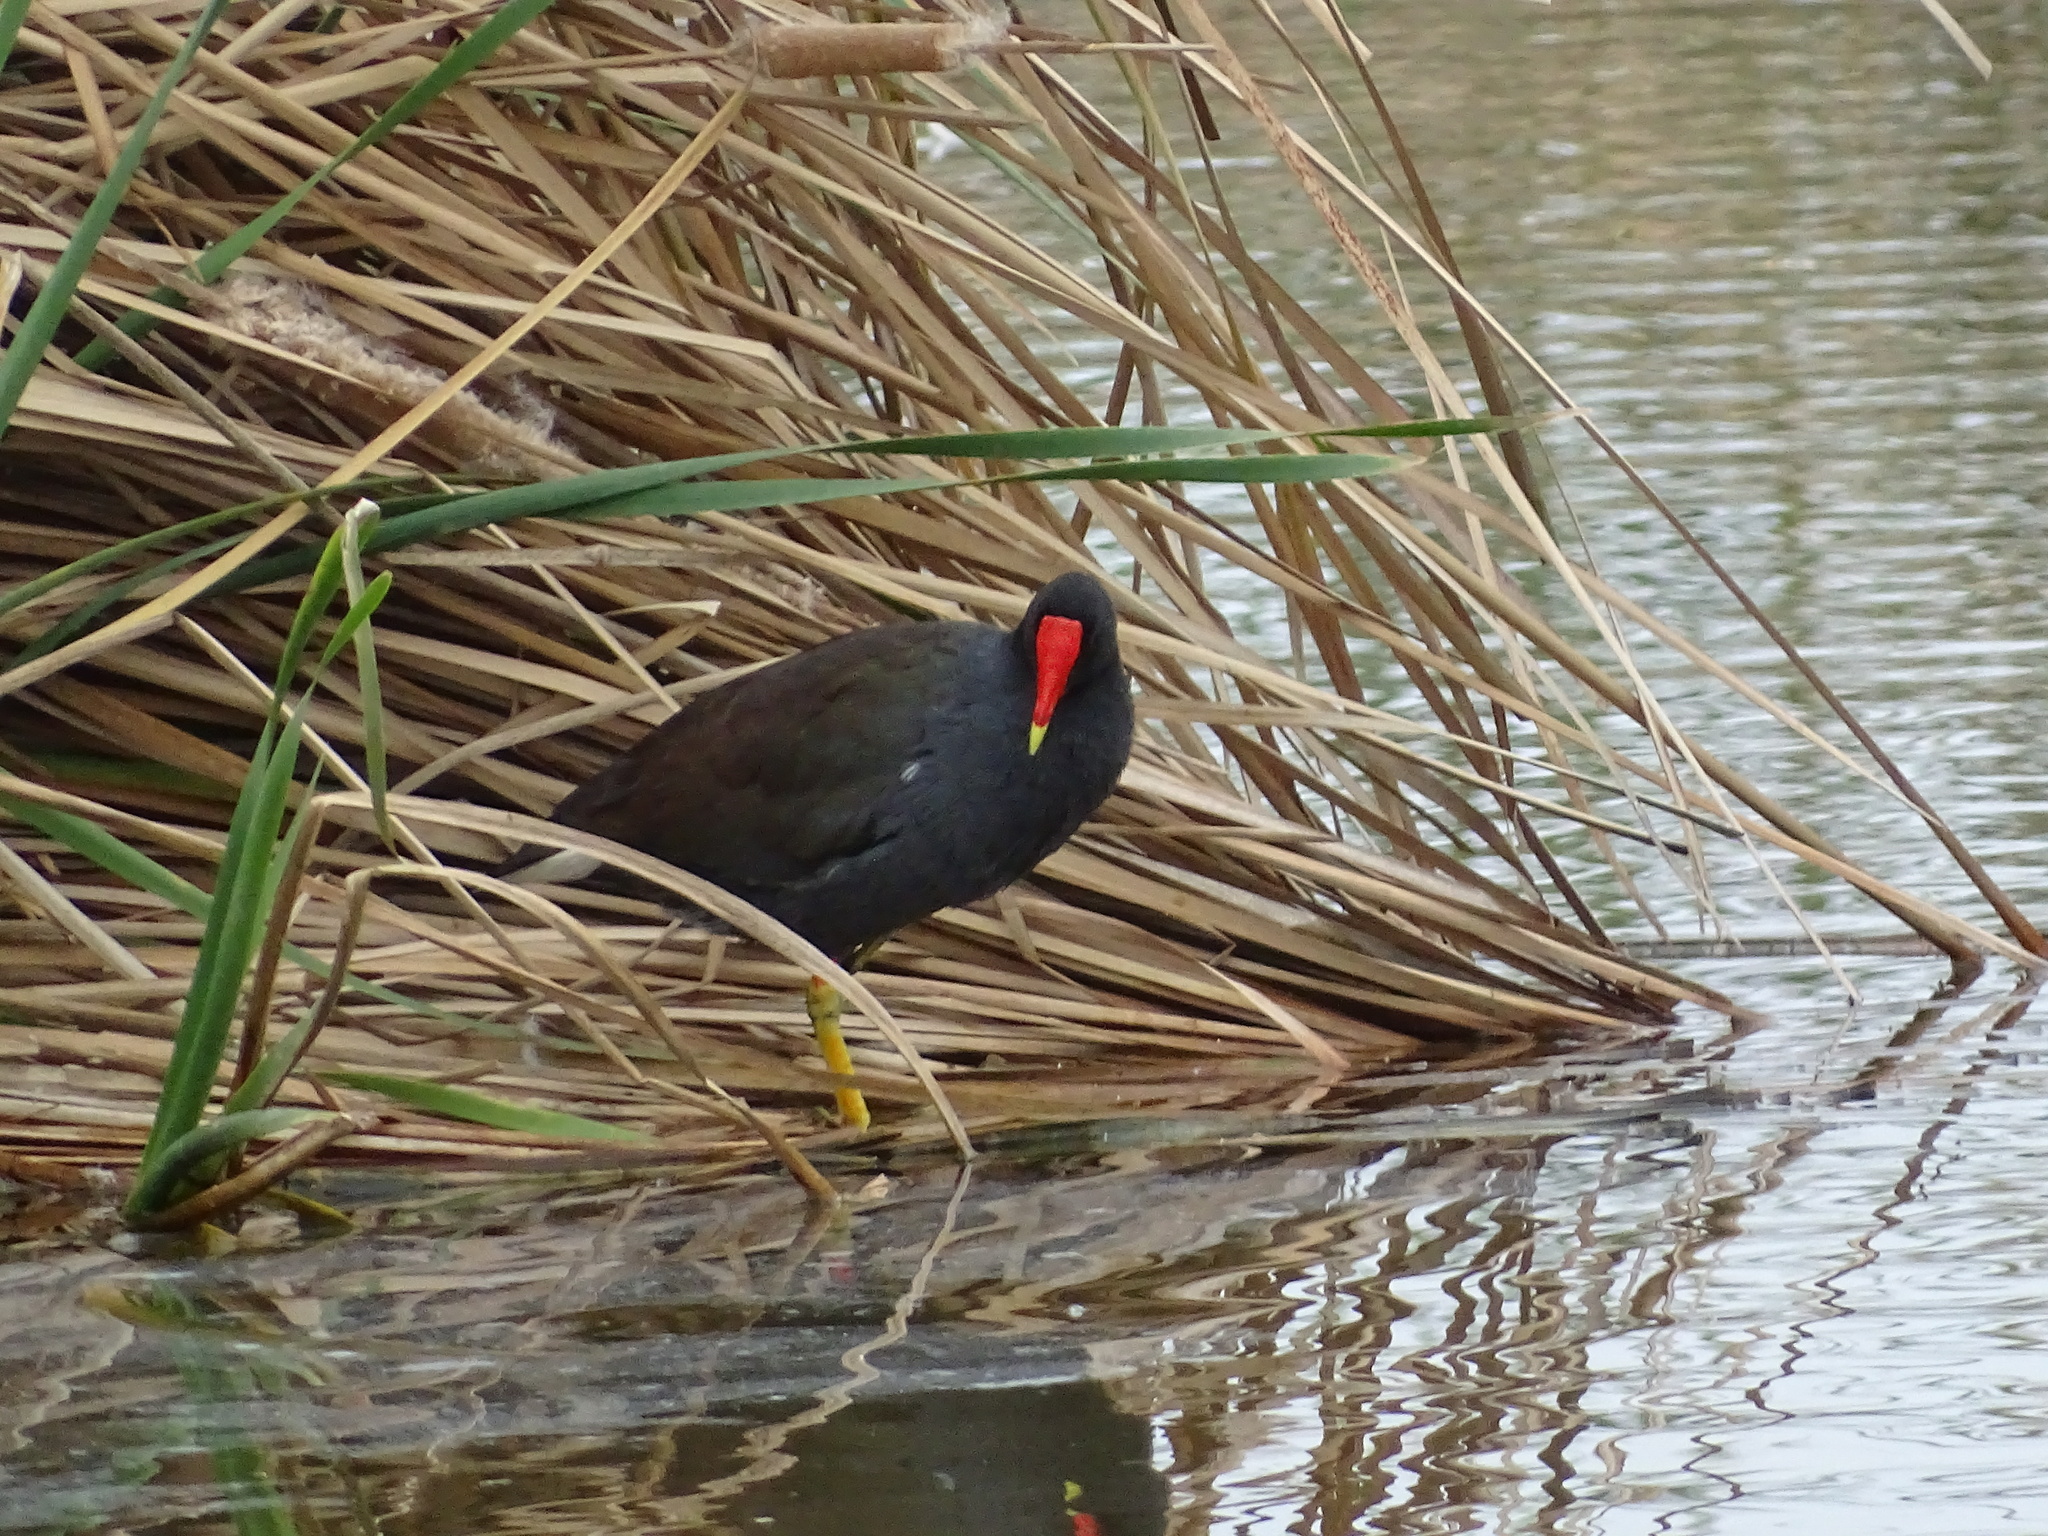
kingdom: Animalia
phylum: Chordata
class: Aves
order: Gruiformes
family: Rallidae
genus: Gallinula
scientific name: Gallinula chloropus
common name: Common moorhen
